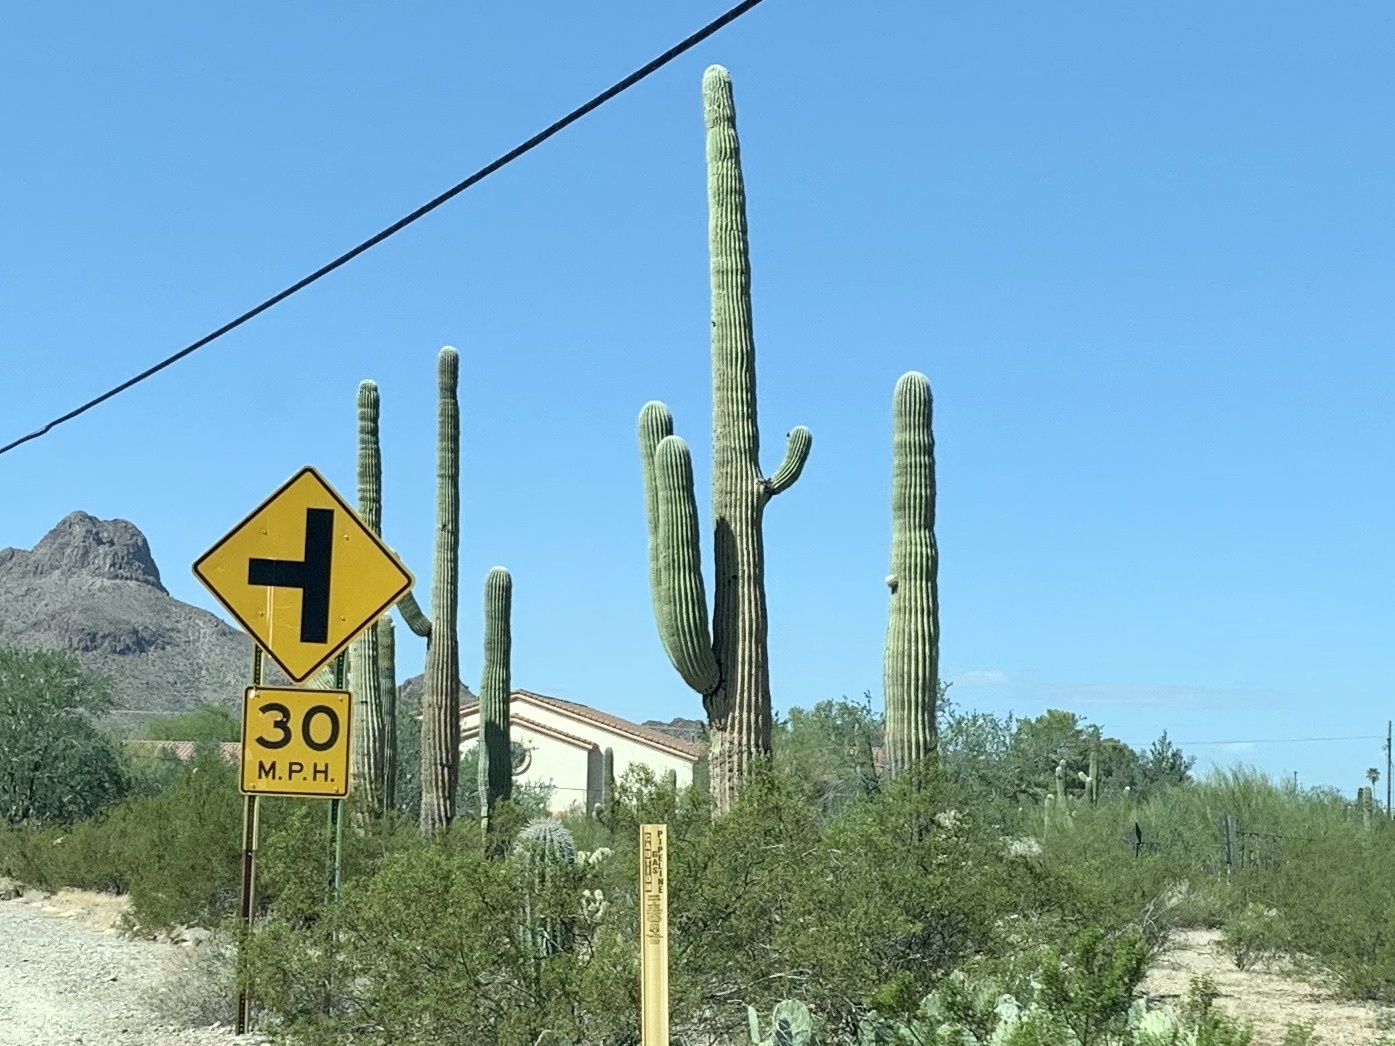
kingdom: Plantae
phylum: Tracheophyta
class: Magnoliopsida
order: Caryophyllales
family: Cactaceae
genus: Carnegiea
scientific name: Carnegiea gigantea
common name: Saguaro
